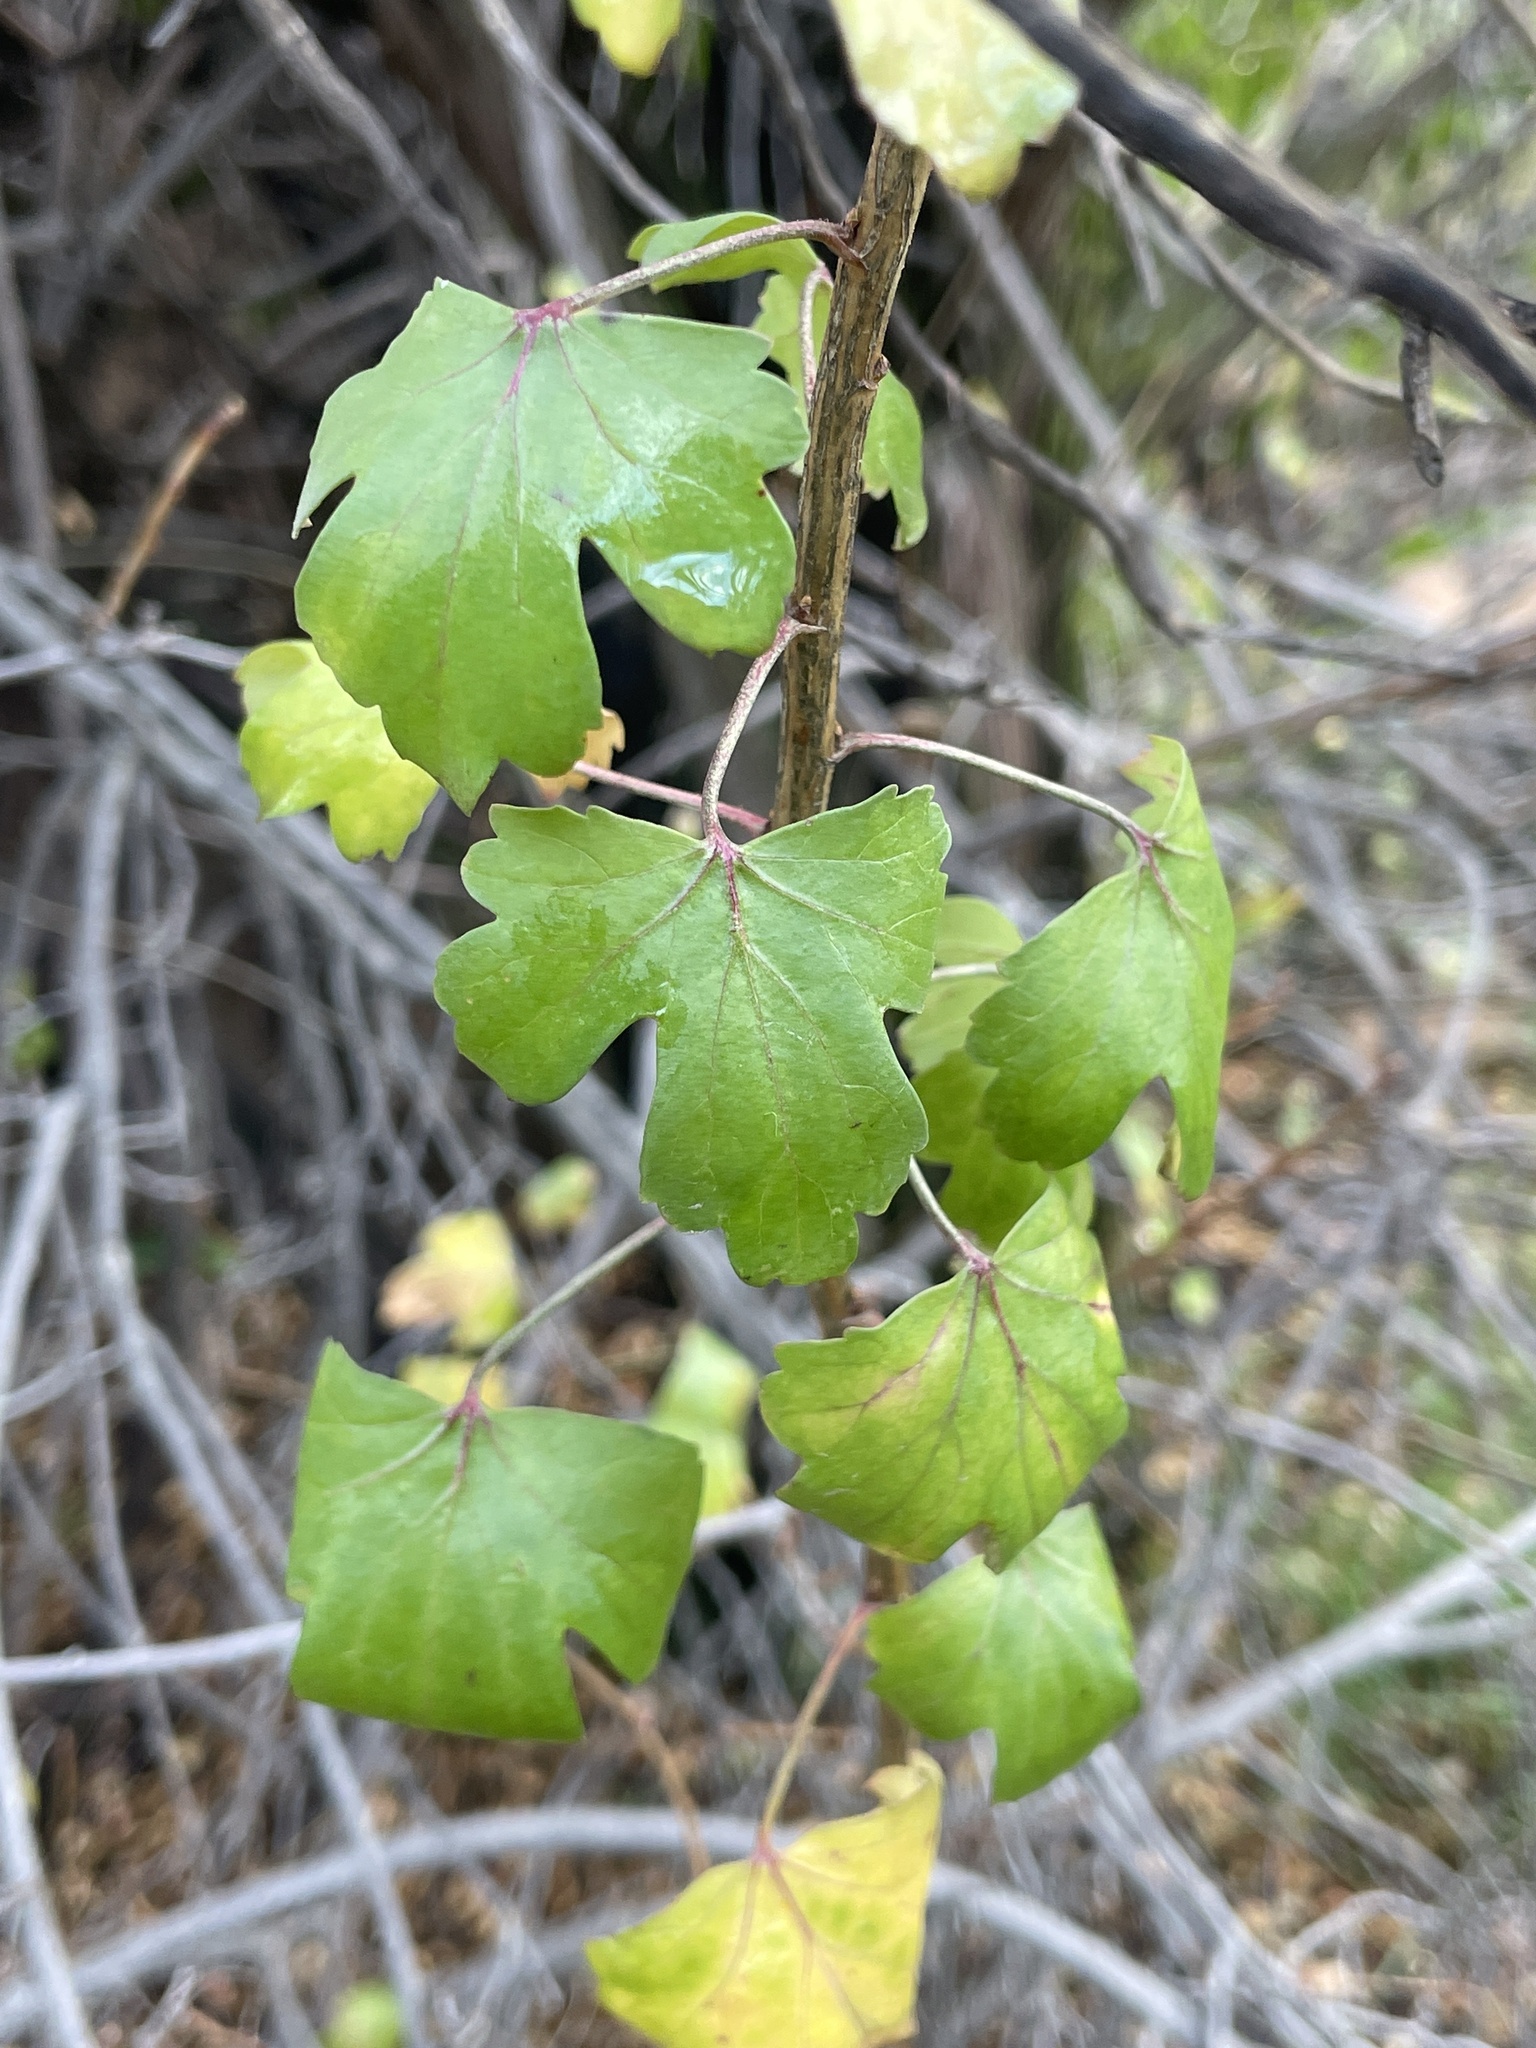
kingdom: Plantae
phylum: Tracheophyta
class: Magnoliopsida
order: Saxifragales
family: Grossulariaceae
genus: Ribes
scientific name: Ribes aureum
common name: Golden currant
